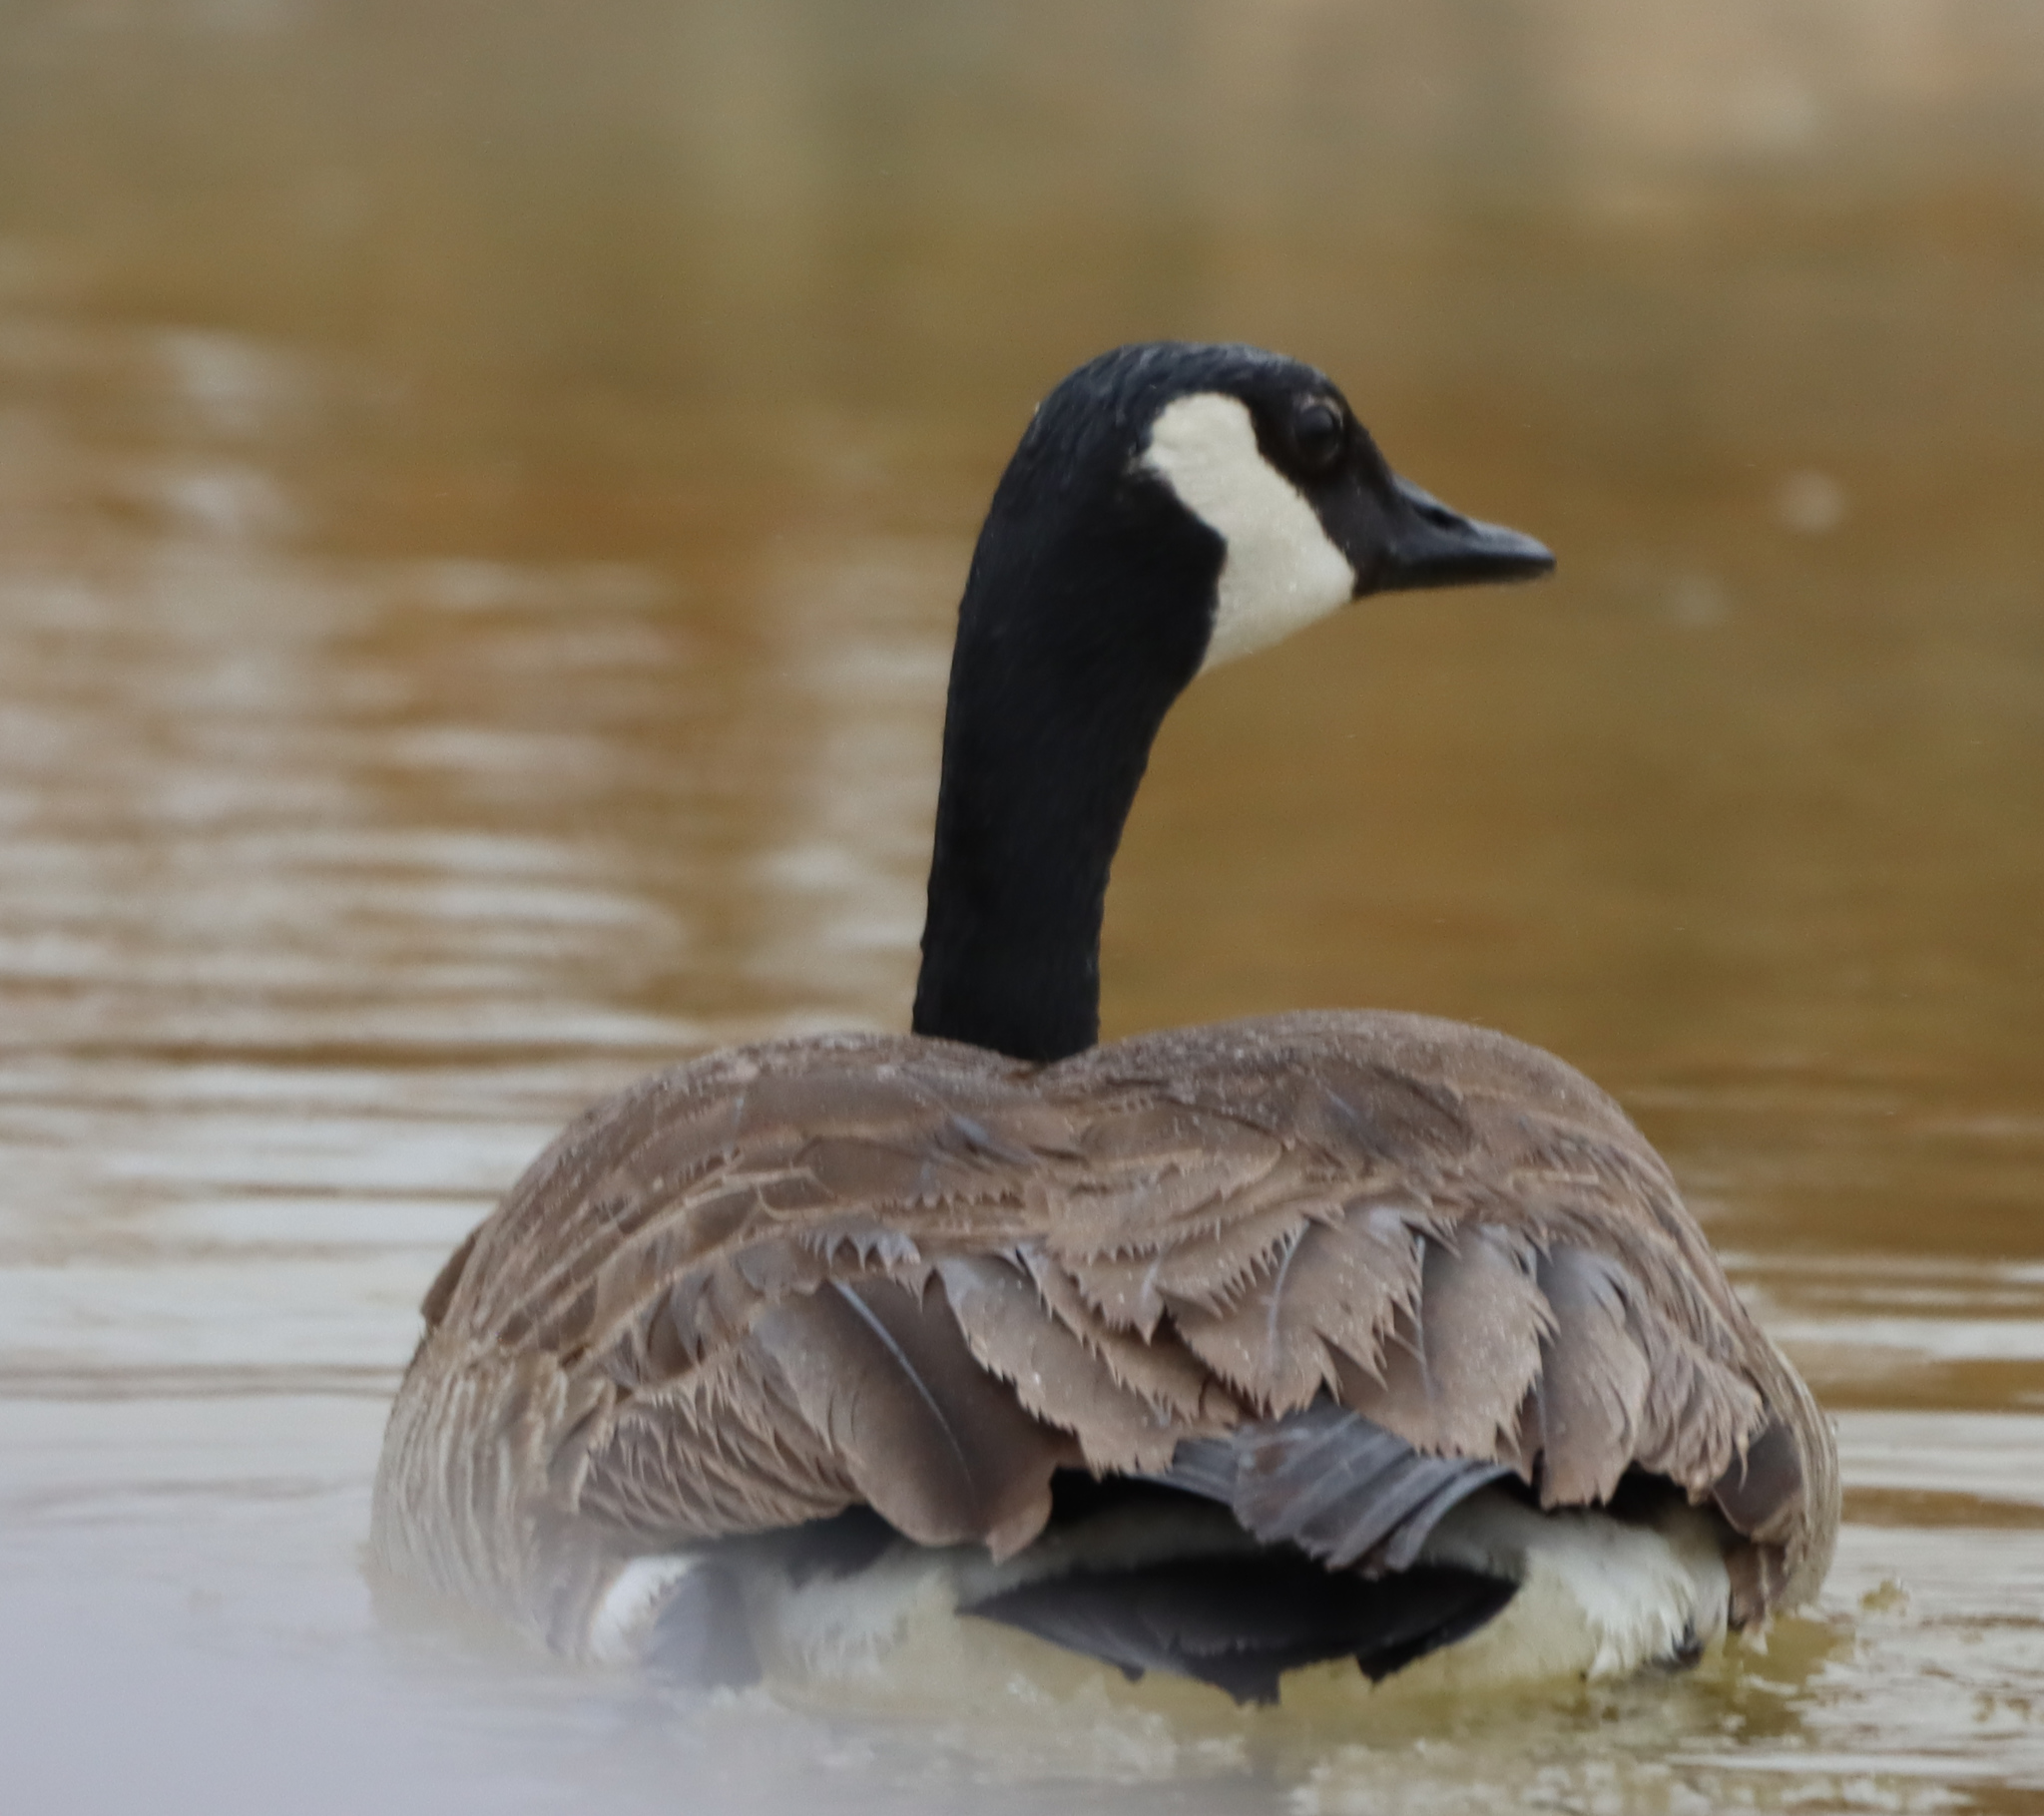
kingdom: Animalia
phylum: Chordata
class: Aves
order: Anseriformes
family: Anatidae
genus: Branta
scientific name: Branta canadensis
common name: Canada goose
